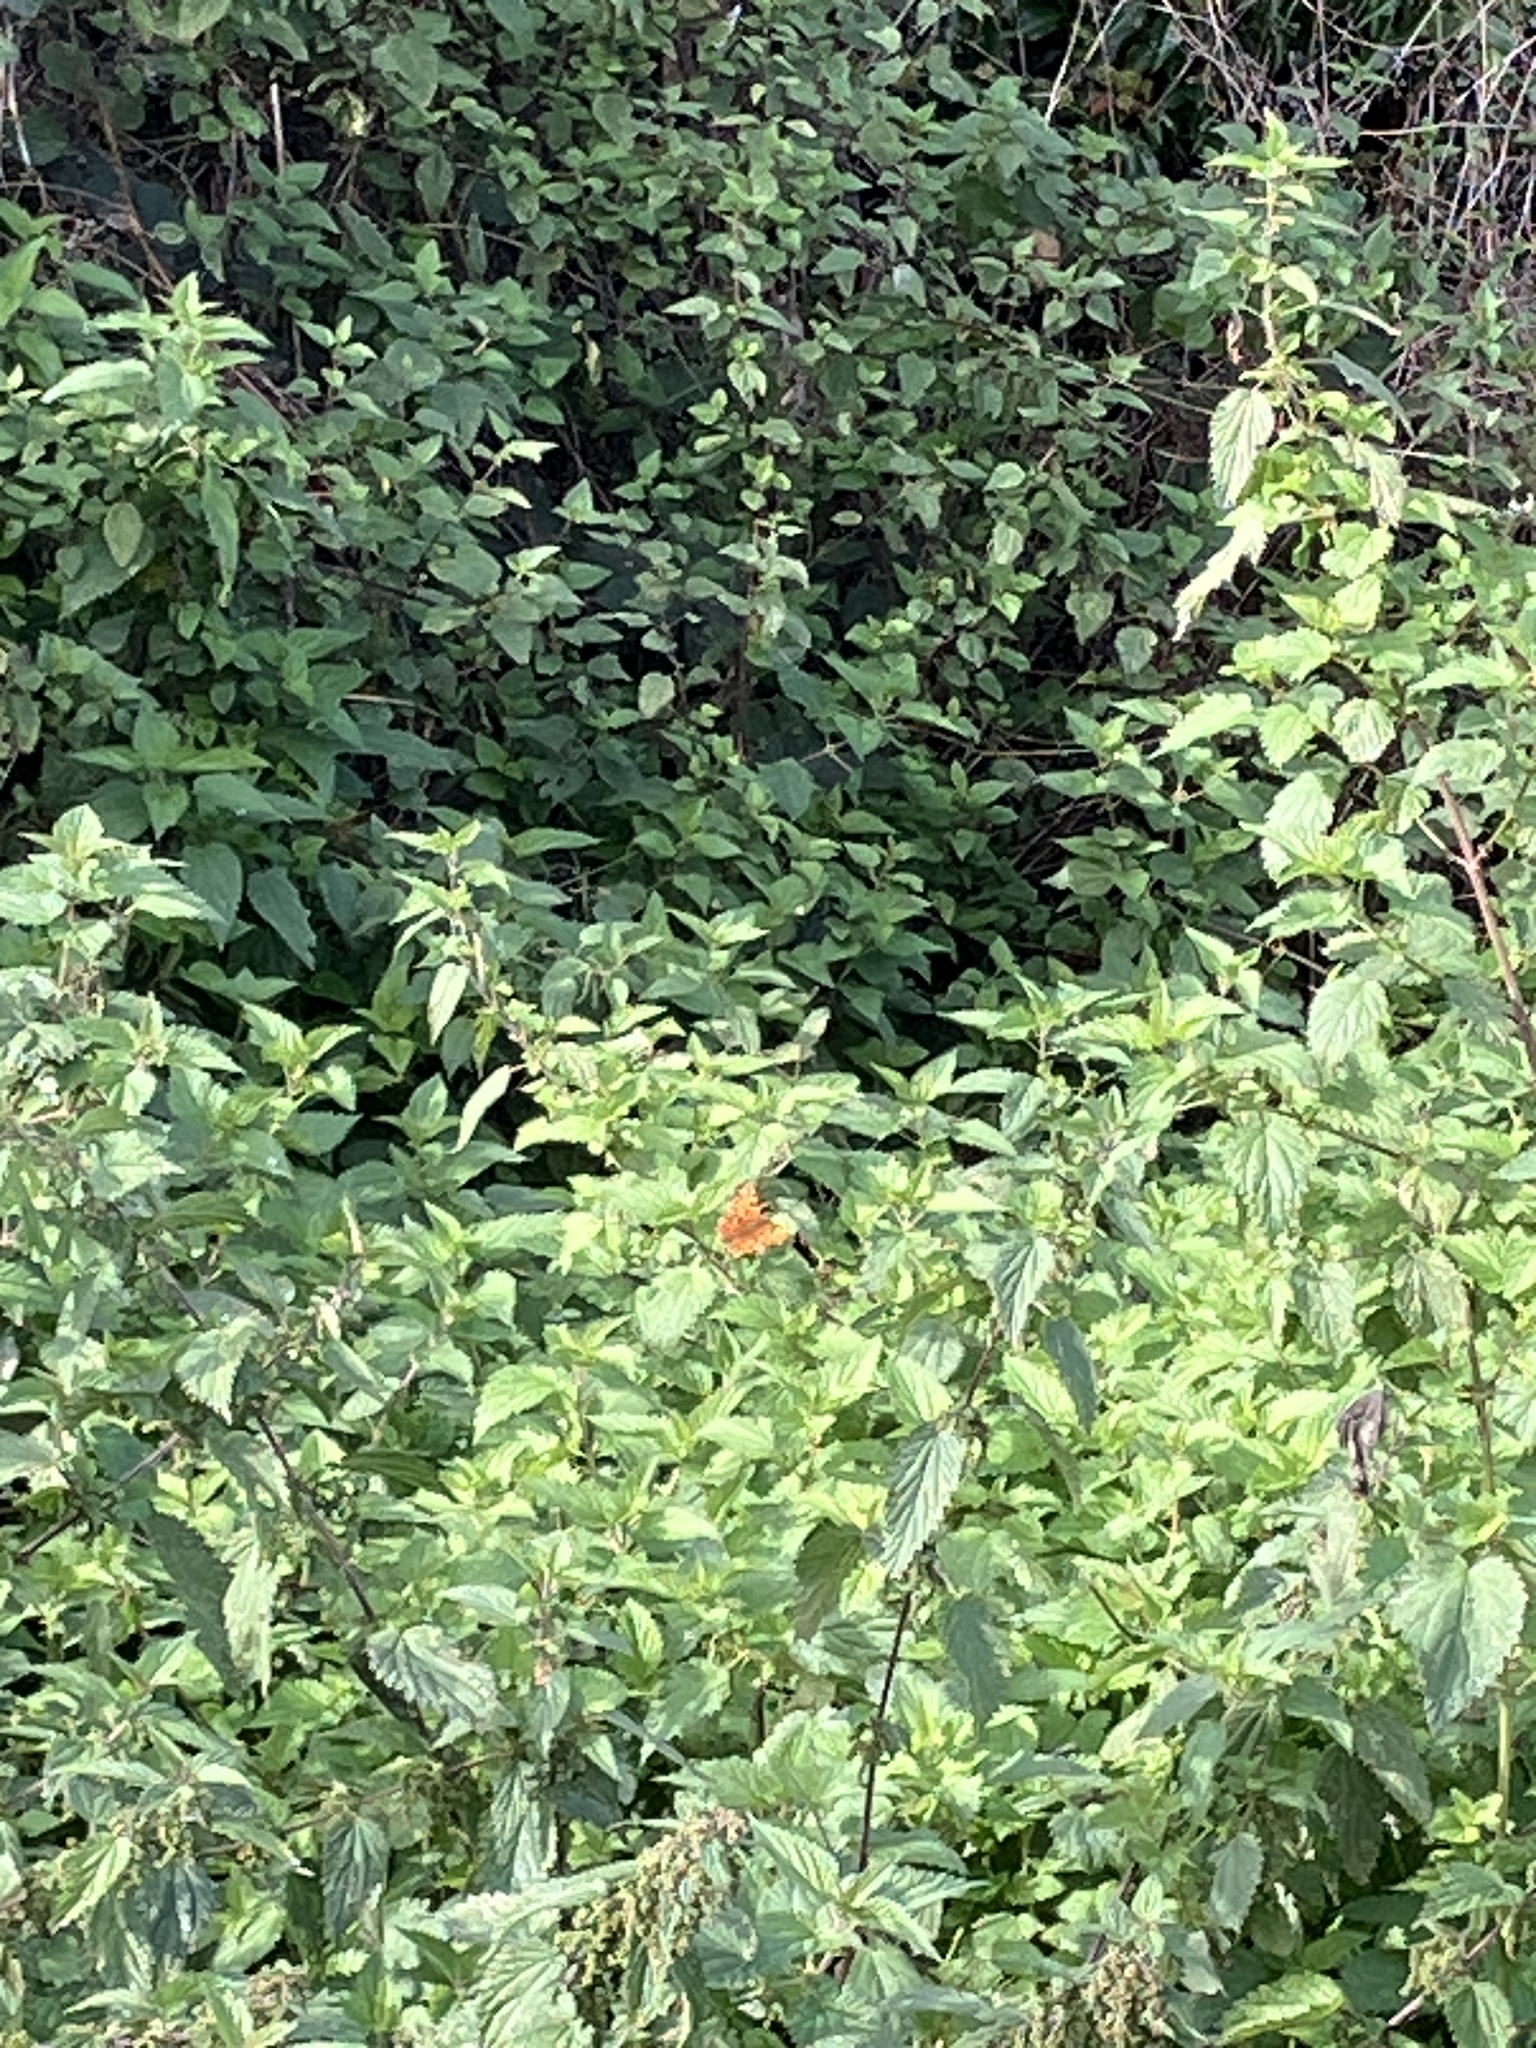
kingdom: Animalia
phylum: Arthropoda
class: Insecta
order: Lepidoptera
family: Nymphalidae
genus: Polygonia
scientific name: Polygonia c-album
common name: Comma
